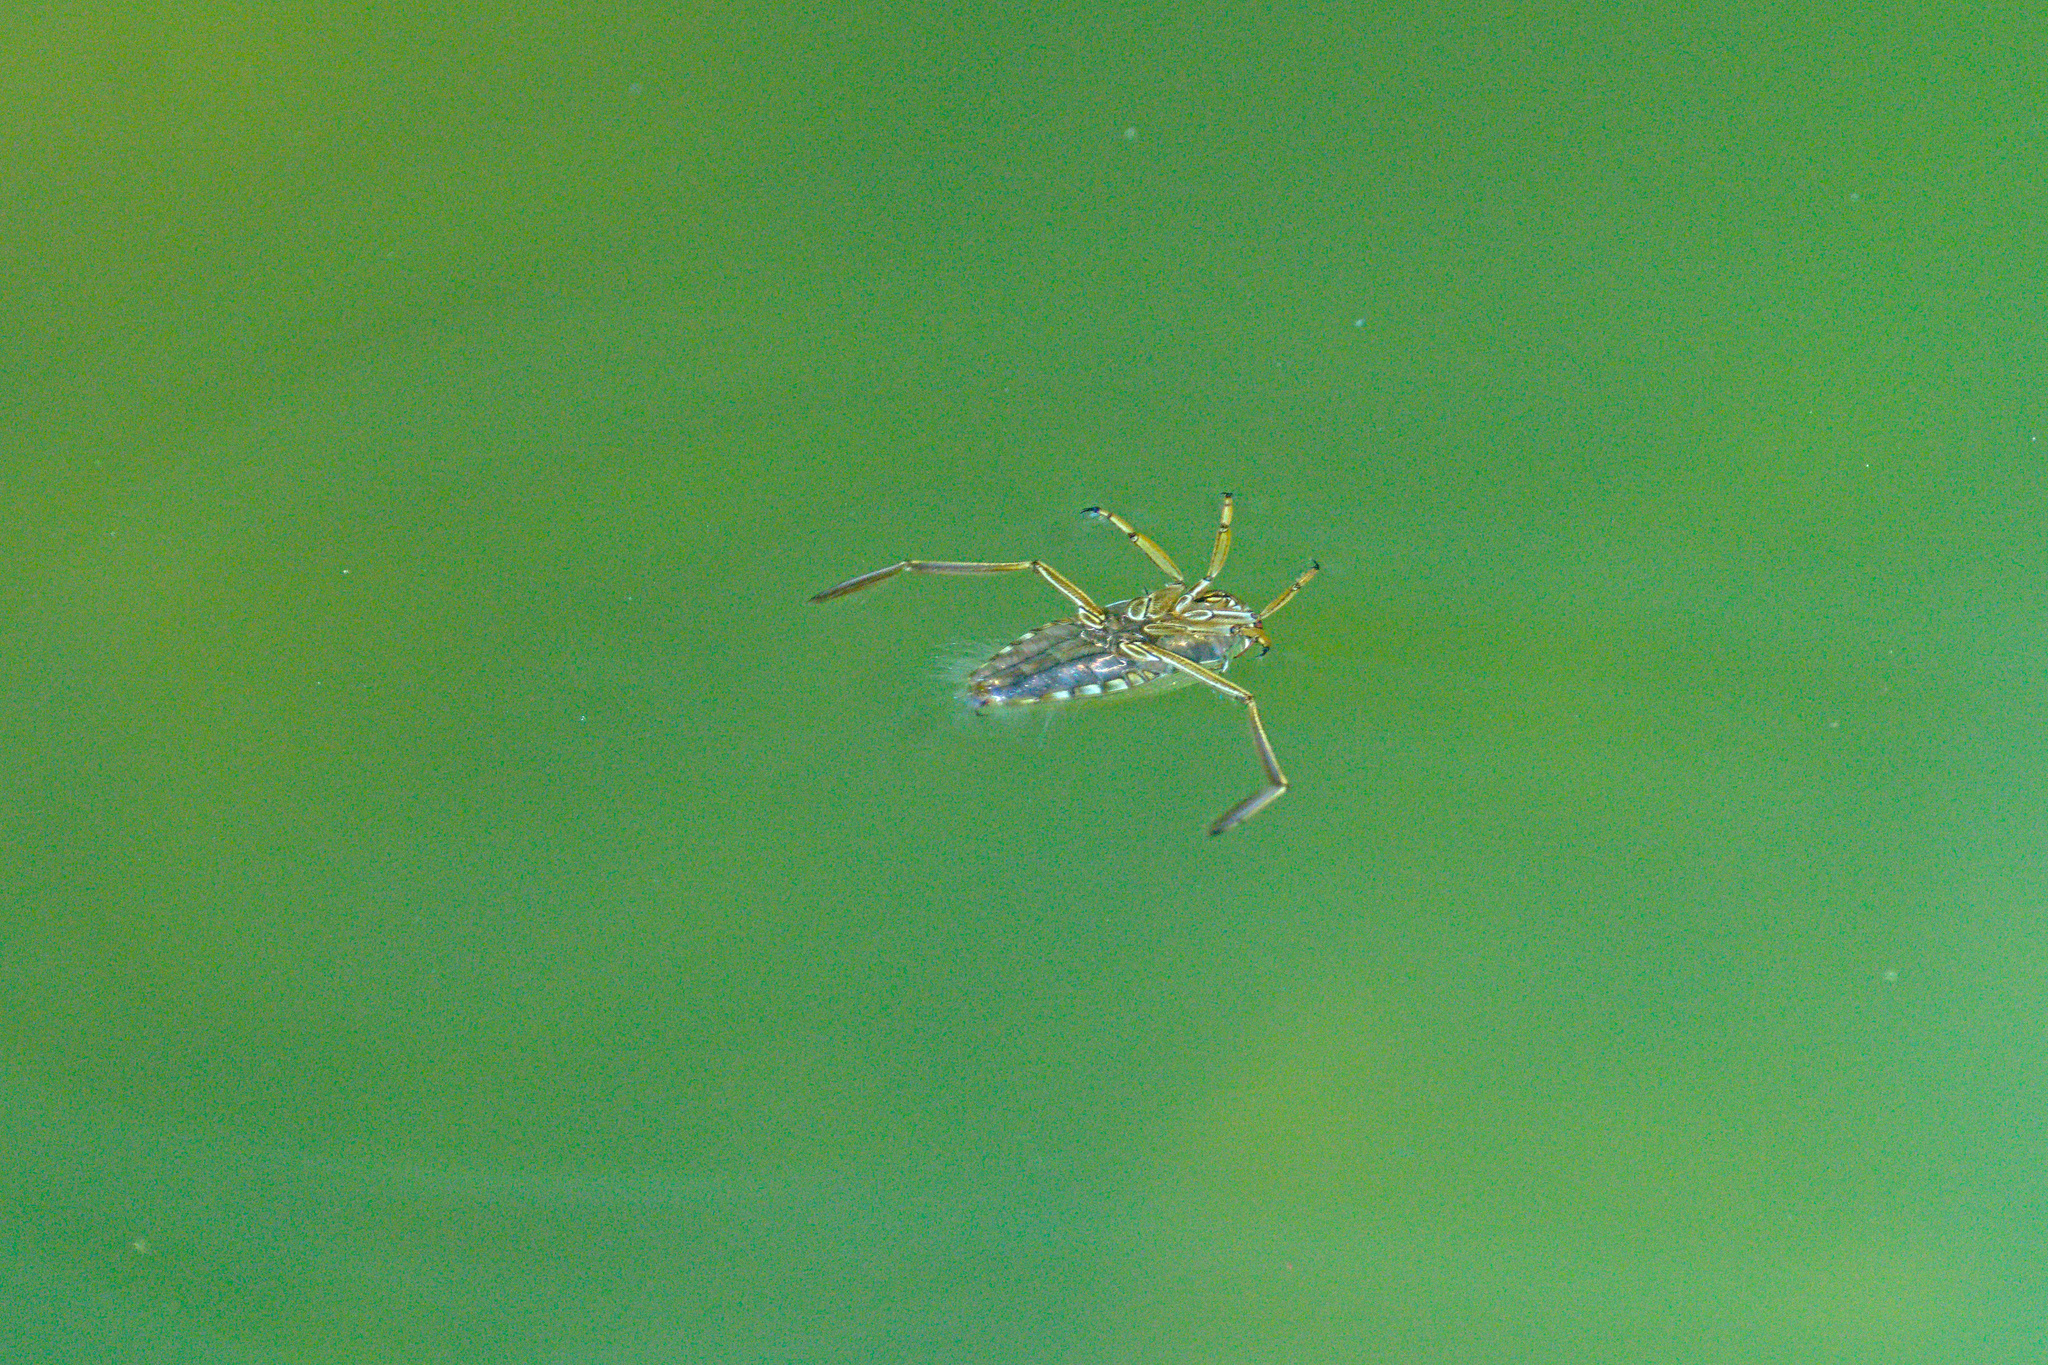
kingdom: Animalia
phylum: Arthropoda
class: Insecta
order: Hemiptera
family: Notonectidae
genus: Notonecta
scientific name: Notonecta
